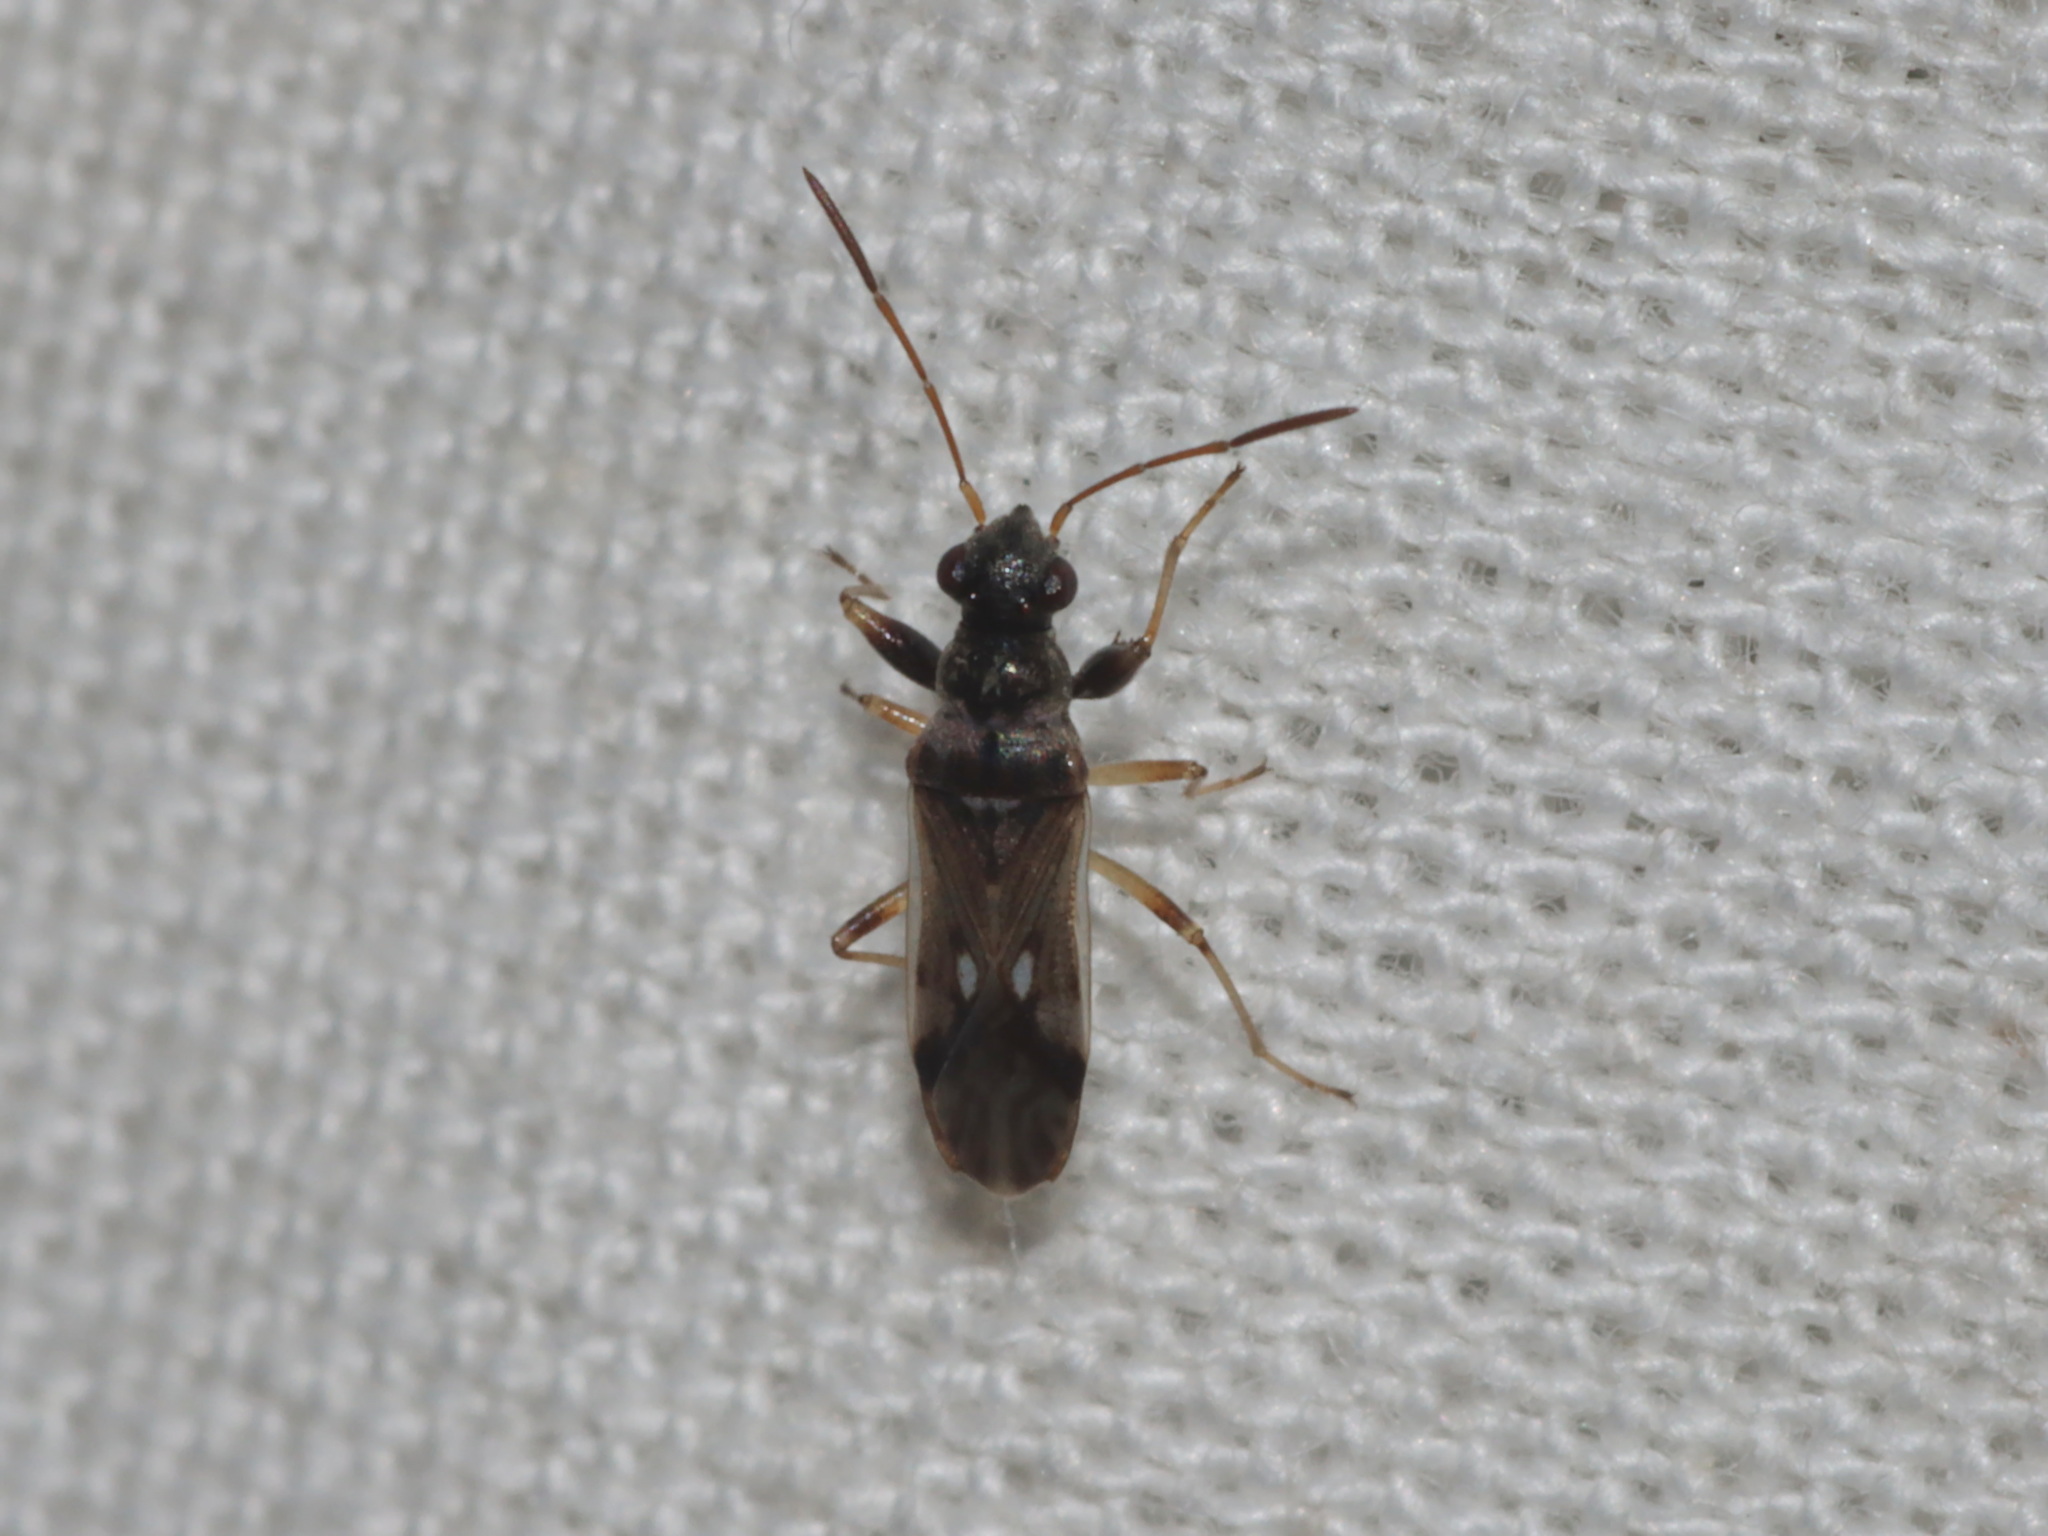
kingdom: Animalia
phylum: Arthropoda
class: Insecta
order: Hemiptera
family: Rhyparochromidae
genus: Pseudopachybrachius
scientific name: Pseudopachybrachius guttus
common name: Seed bug
